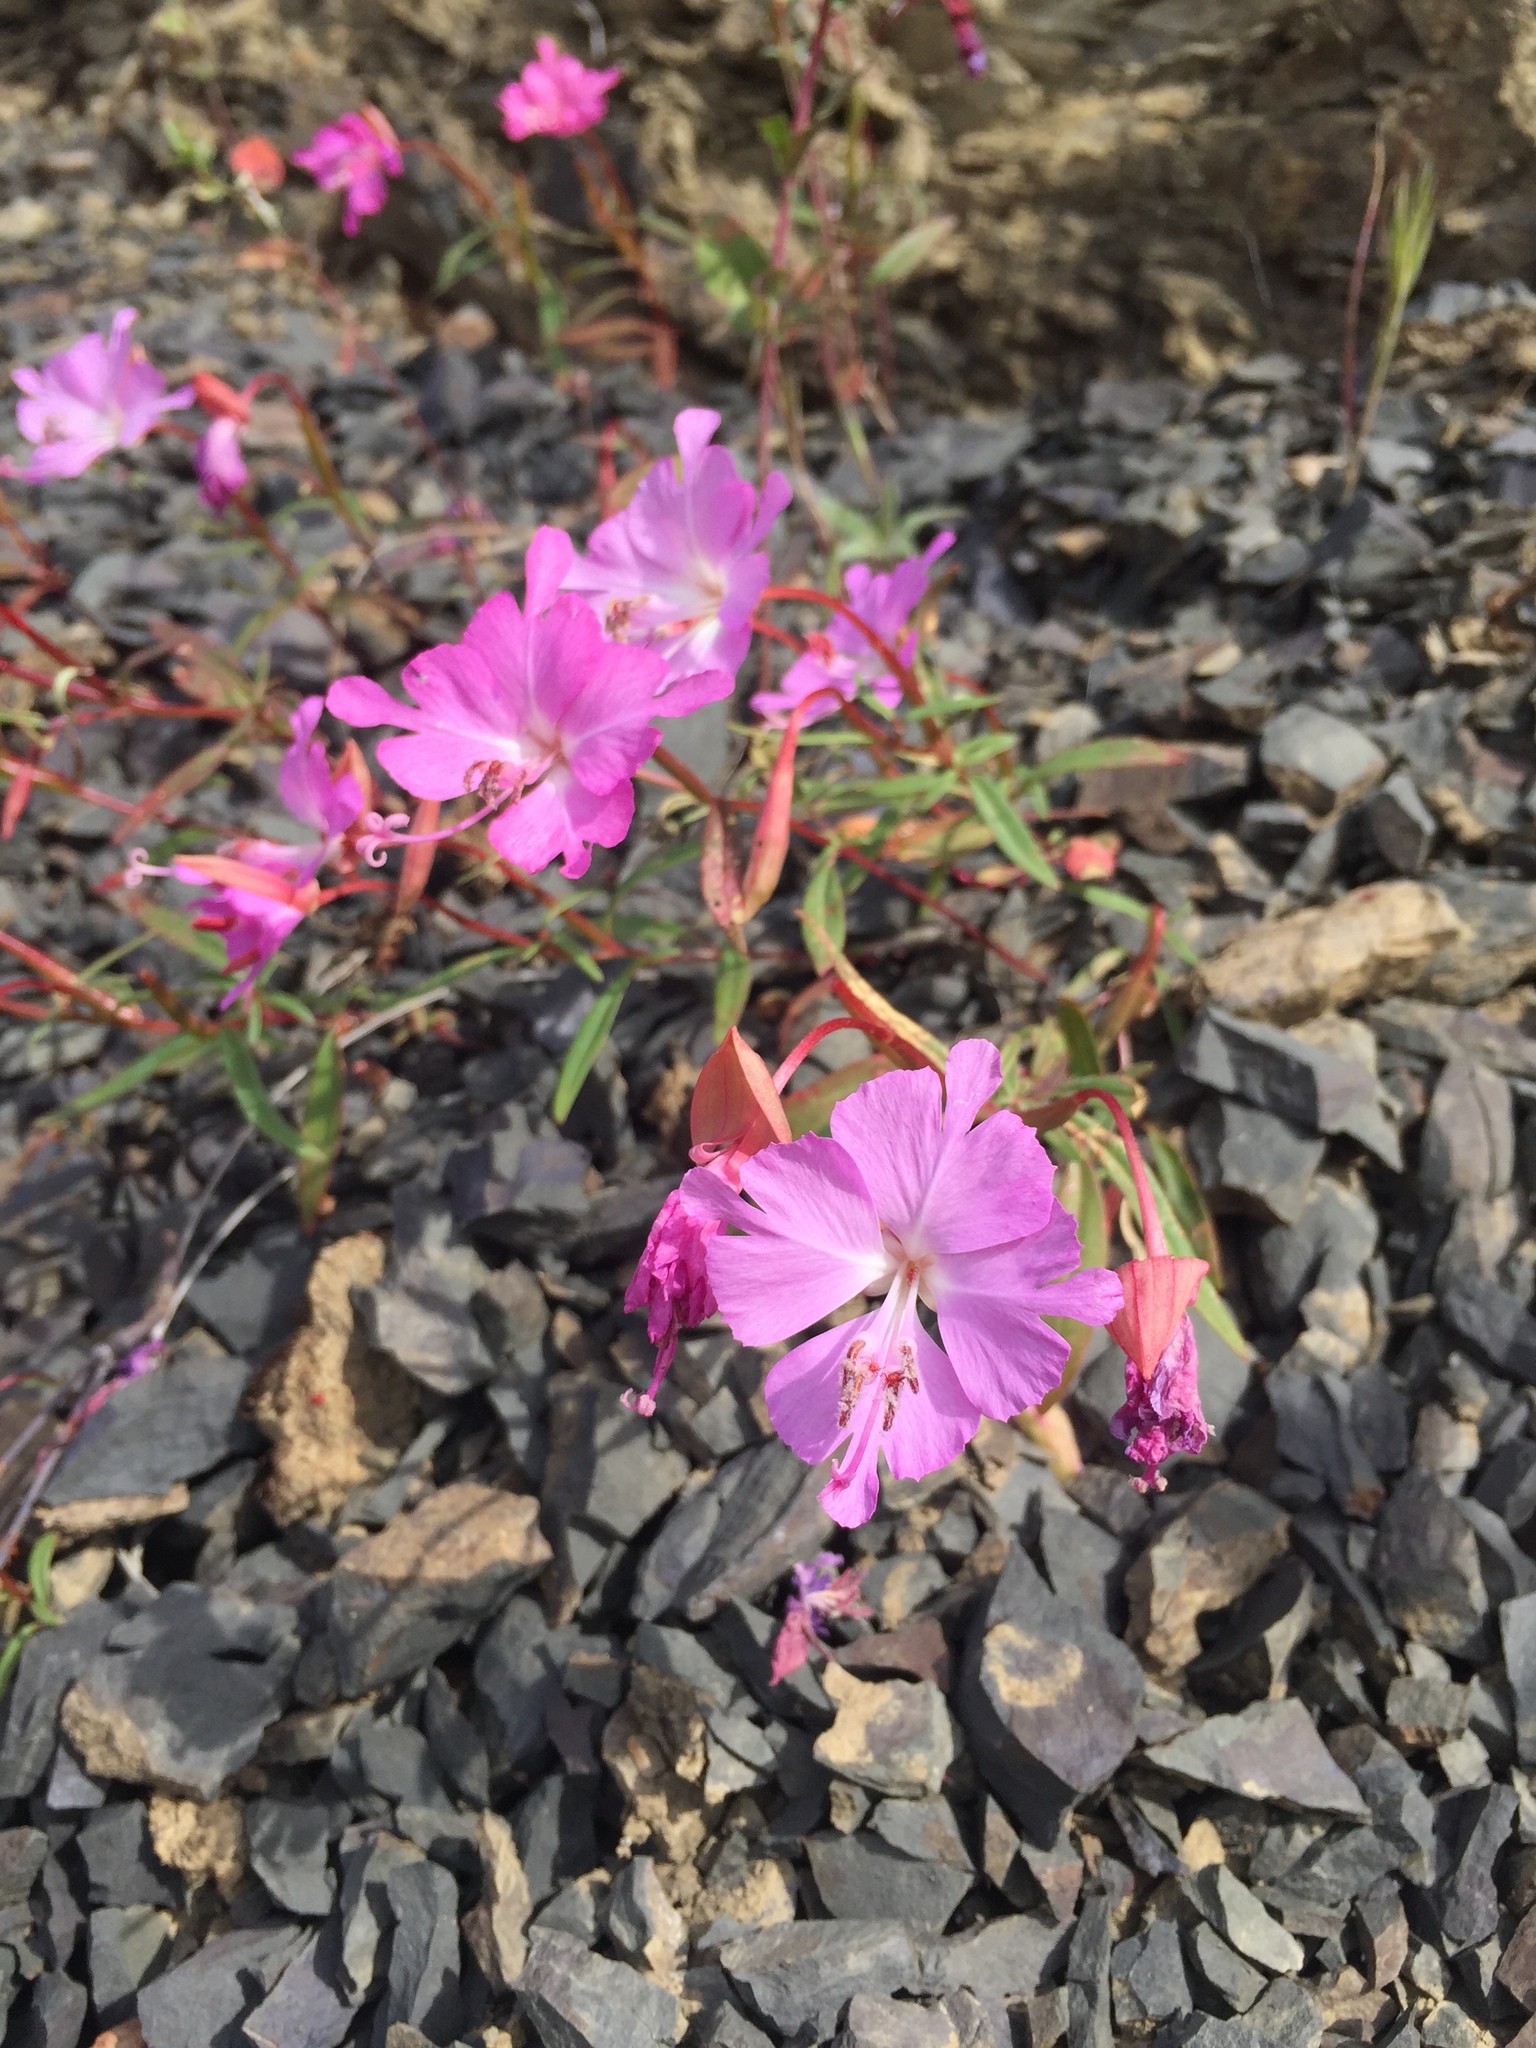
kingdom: Plantae
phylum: Tracheophyta
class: Magnoliopsida
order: Myrtales
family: Onagraceae
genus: Clarkia
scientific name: Clarkia breweri
